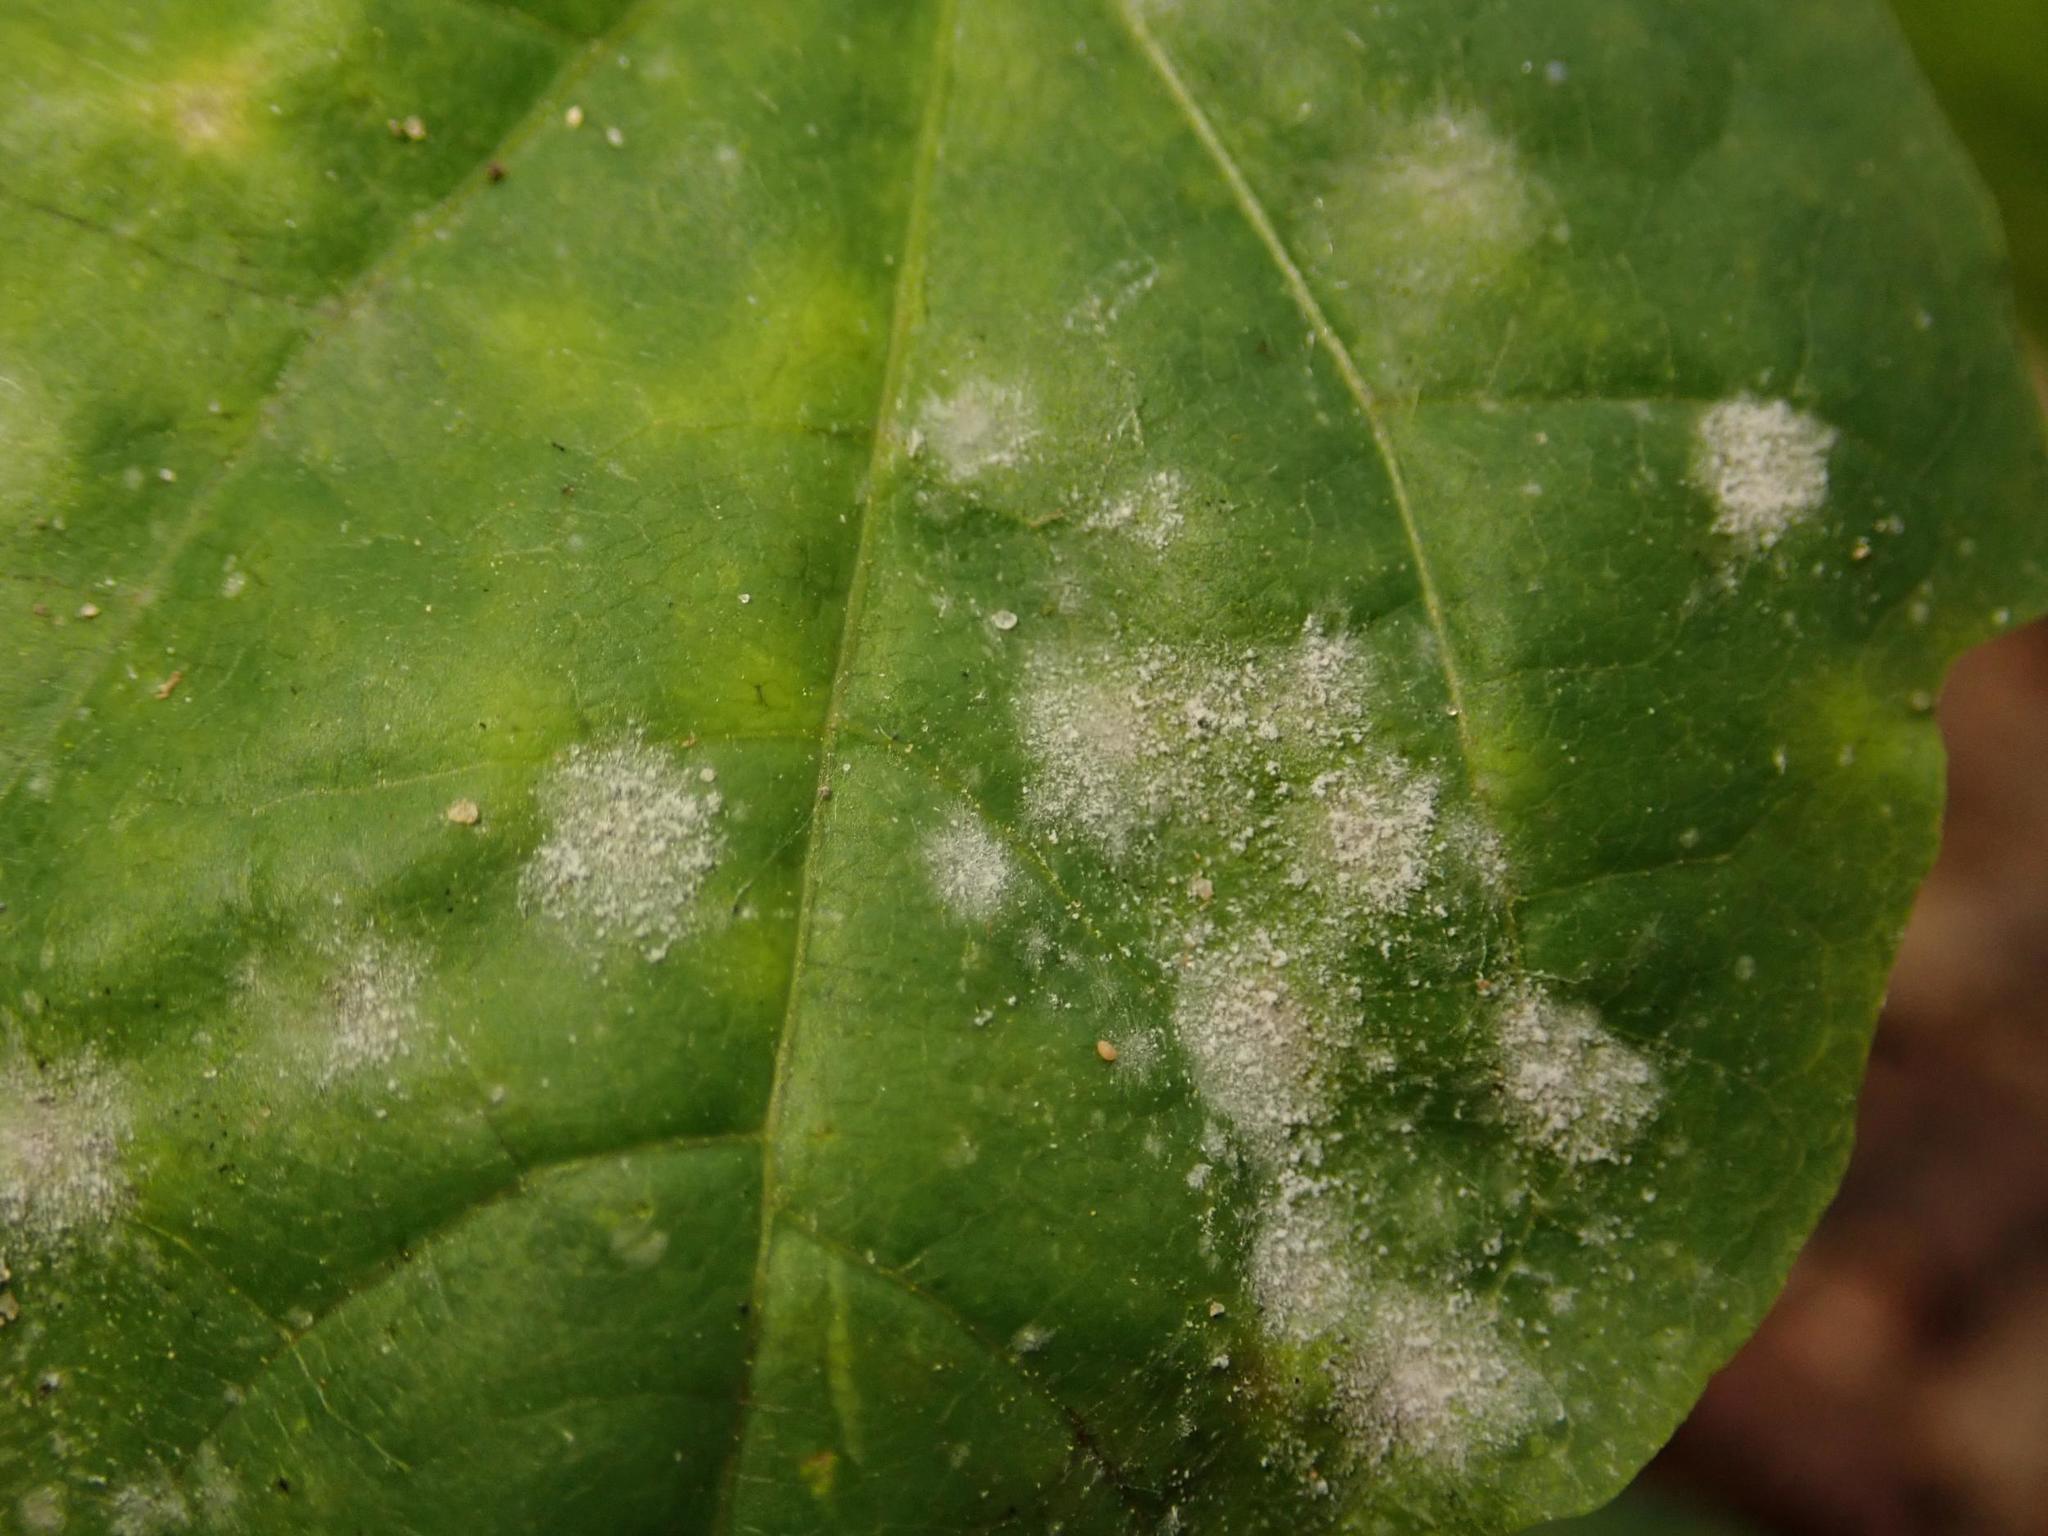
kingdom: Fungi
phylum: Ascomycota
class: Leotiomycetes
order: Helotiales
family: Erysiphaceae
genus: Sawadaea
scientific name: Sawadaea tulasnei
